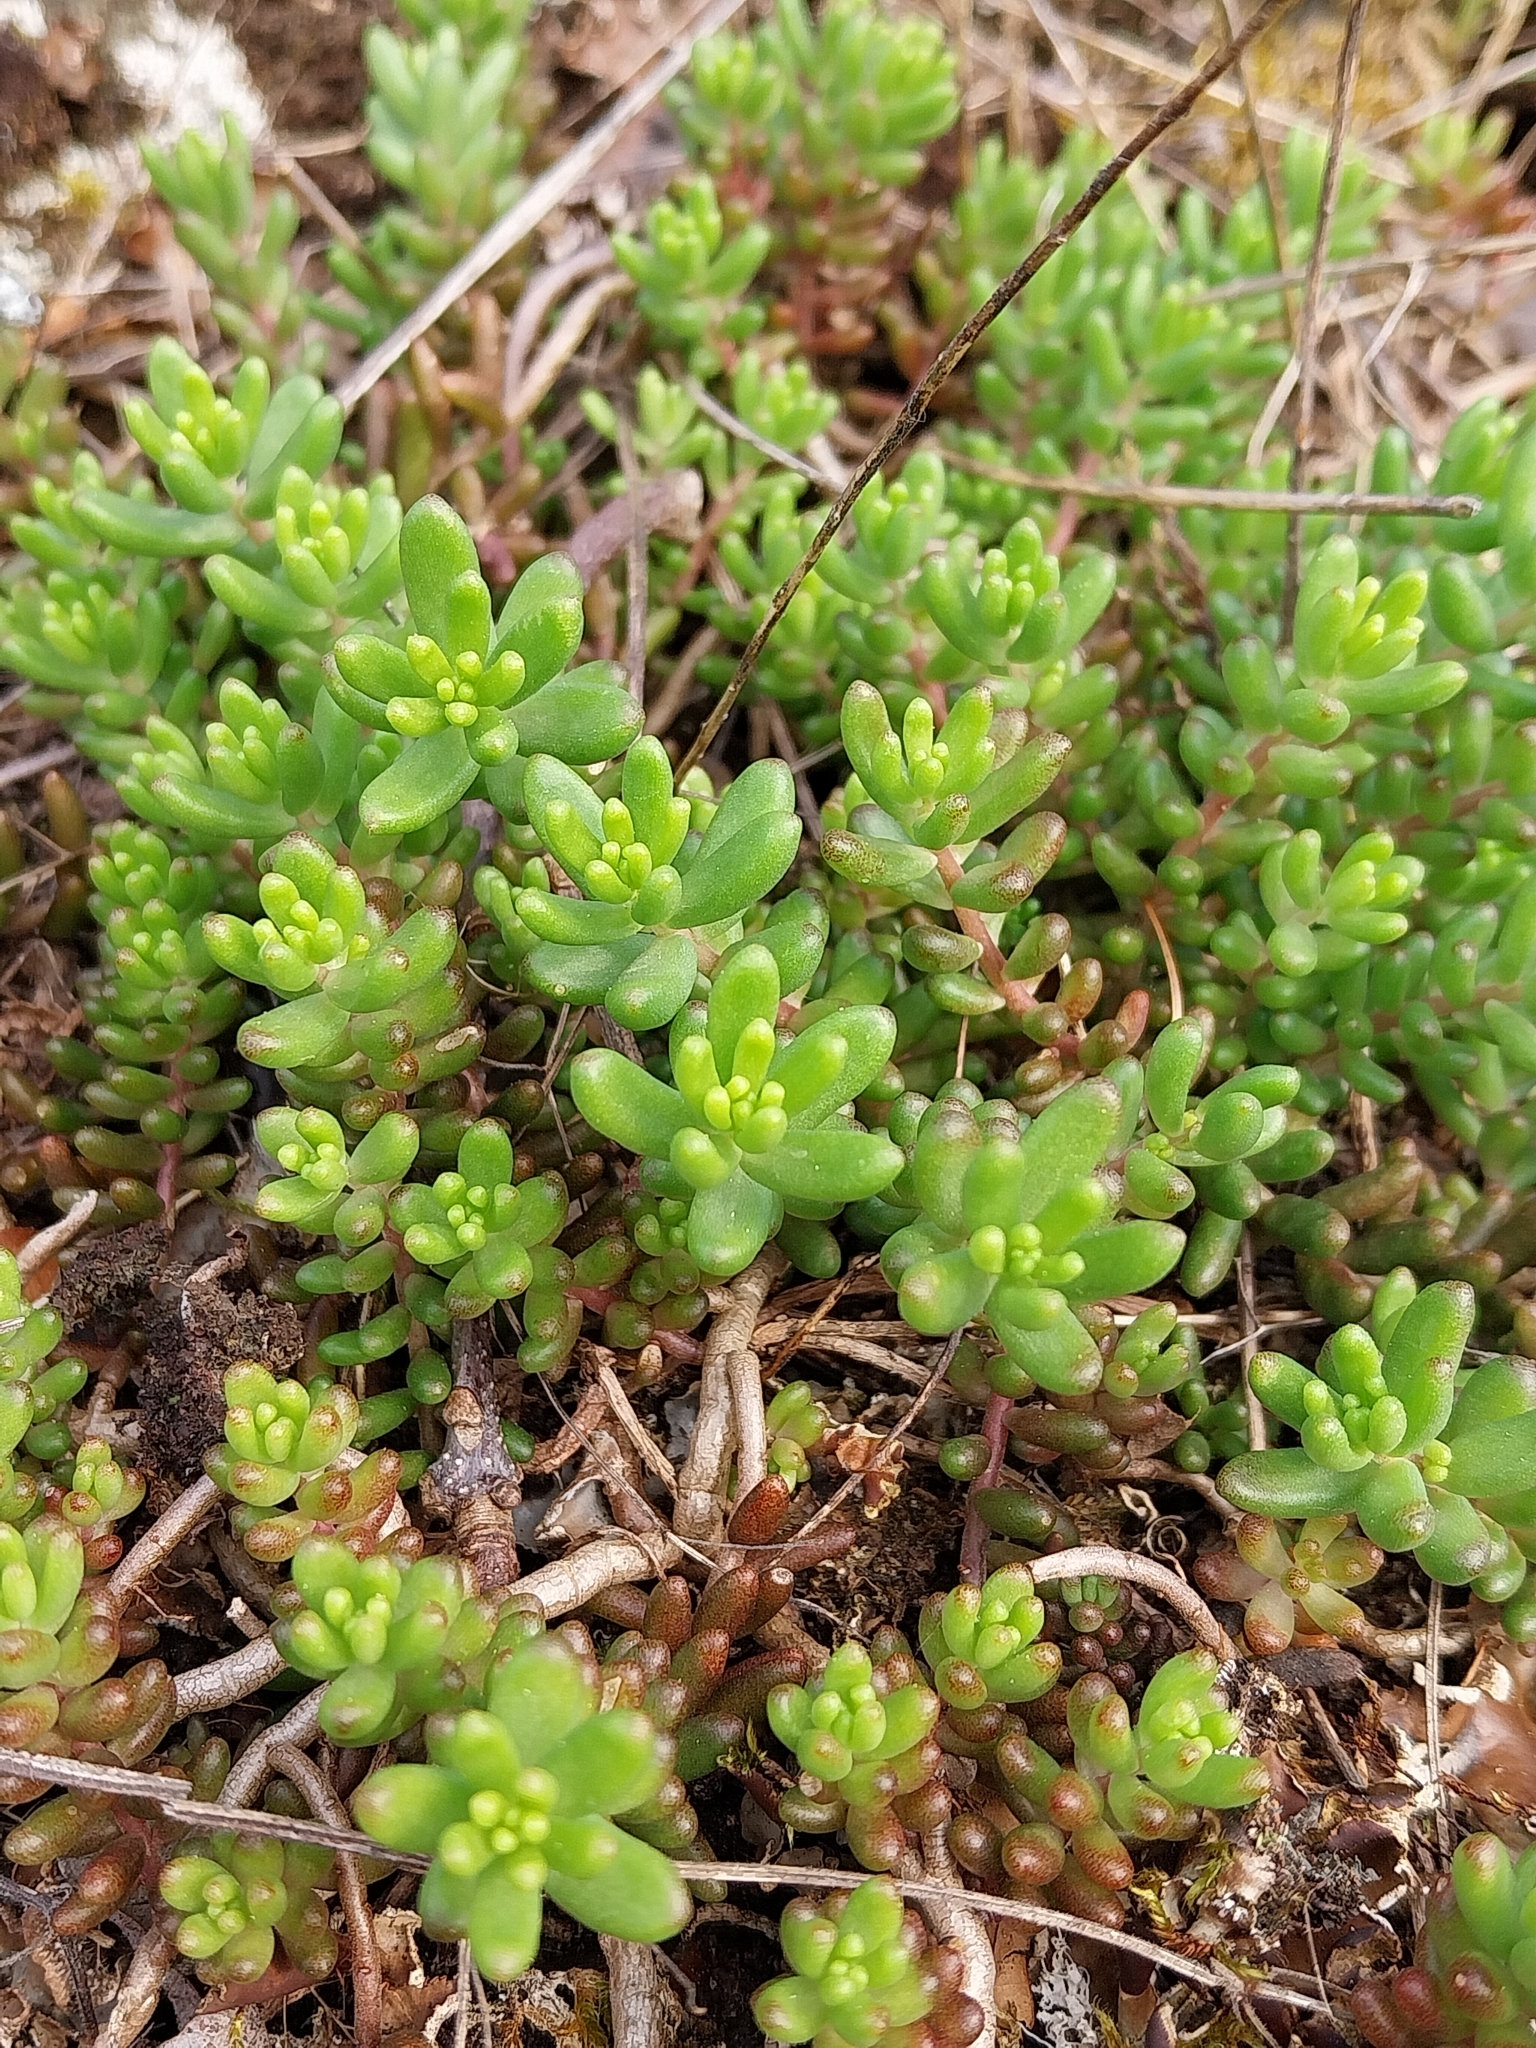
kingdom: Plantae
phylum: Tracheophyta
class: Magnoliopsida
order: Saxifragales
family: Crassulaceae
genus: Sedum
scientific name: Sedum album
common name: White stonecrop
